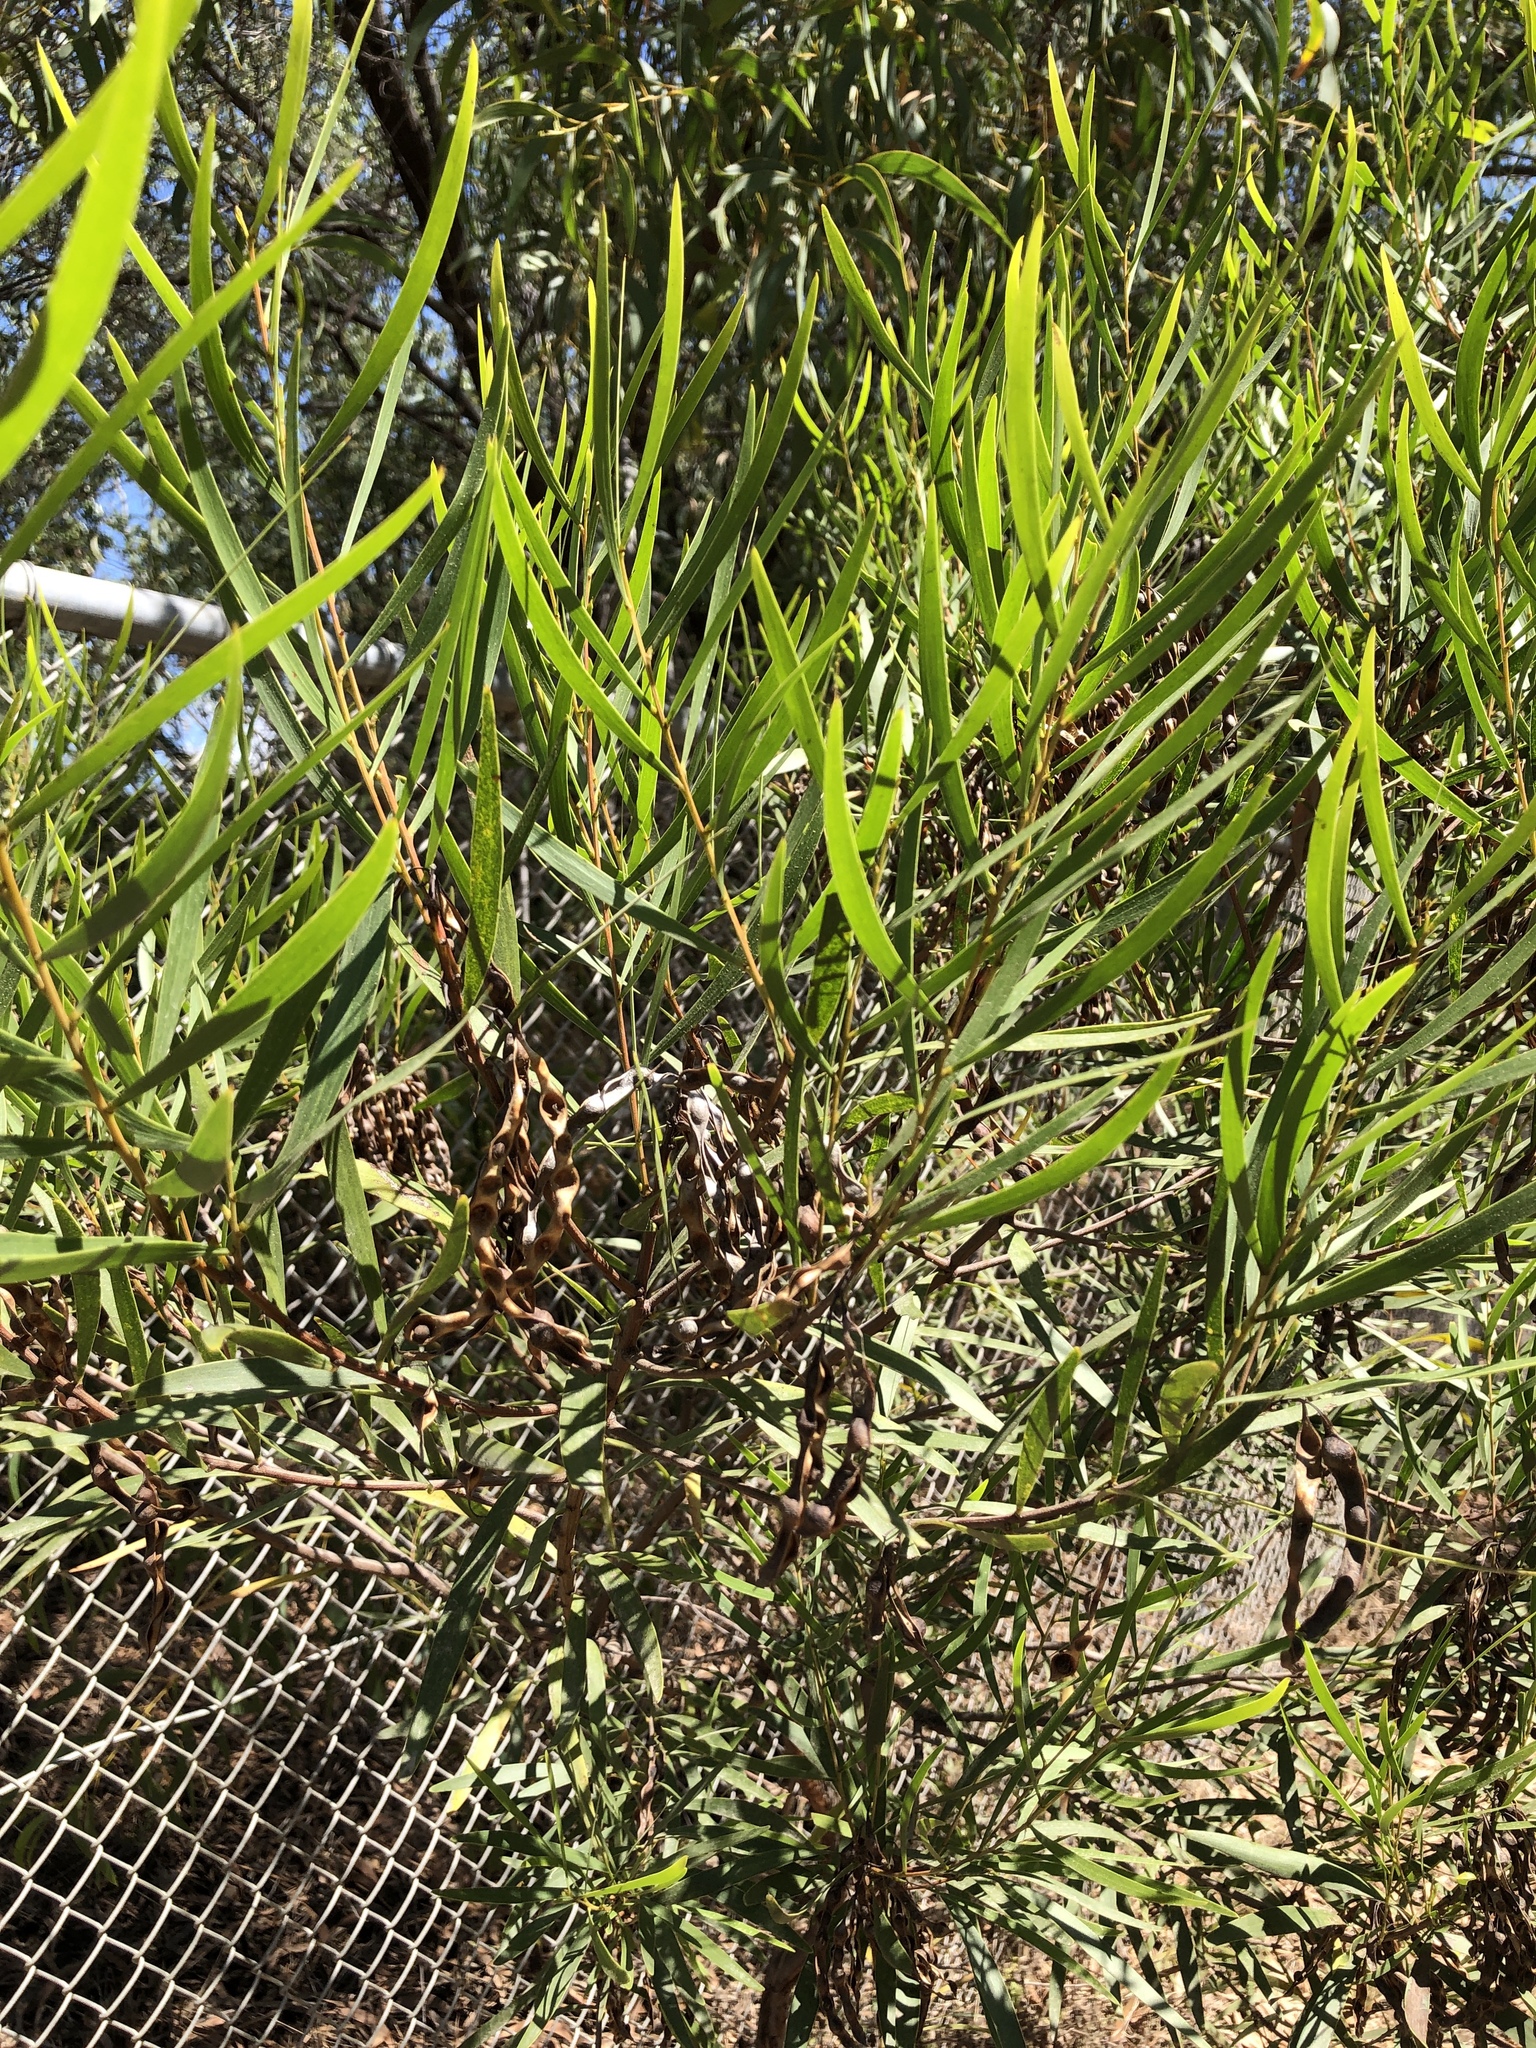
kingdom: Plantae
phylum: Tracheophyta
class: Magnoliopsida
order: Fabales
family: Fabaceae
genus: Acacia
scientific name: Acacia simsii
